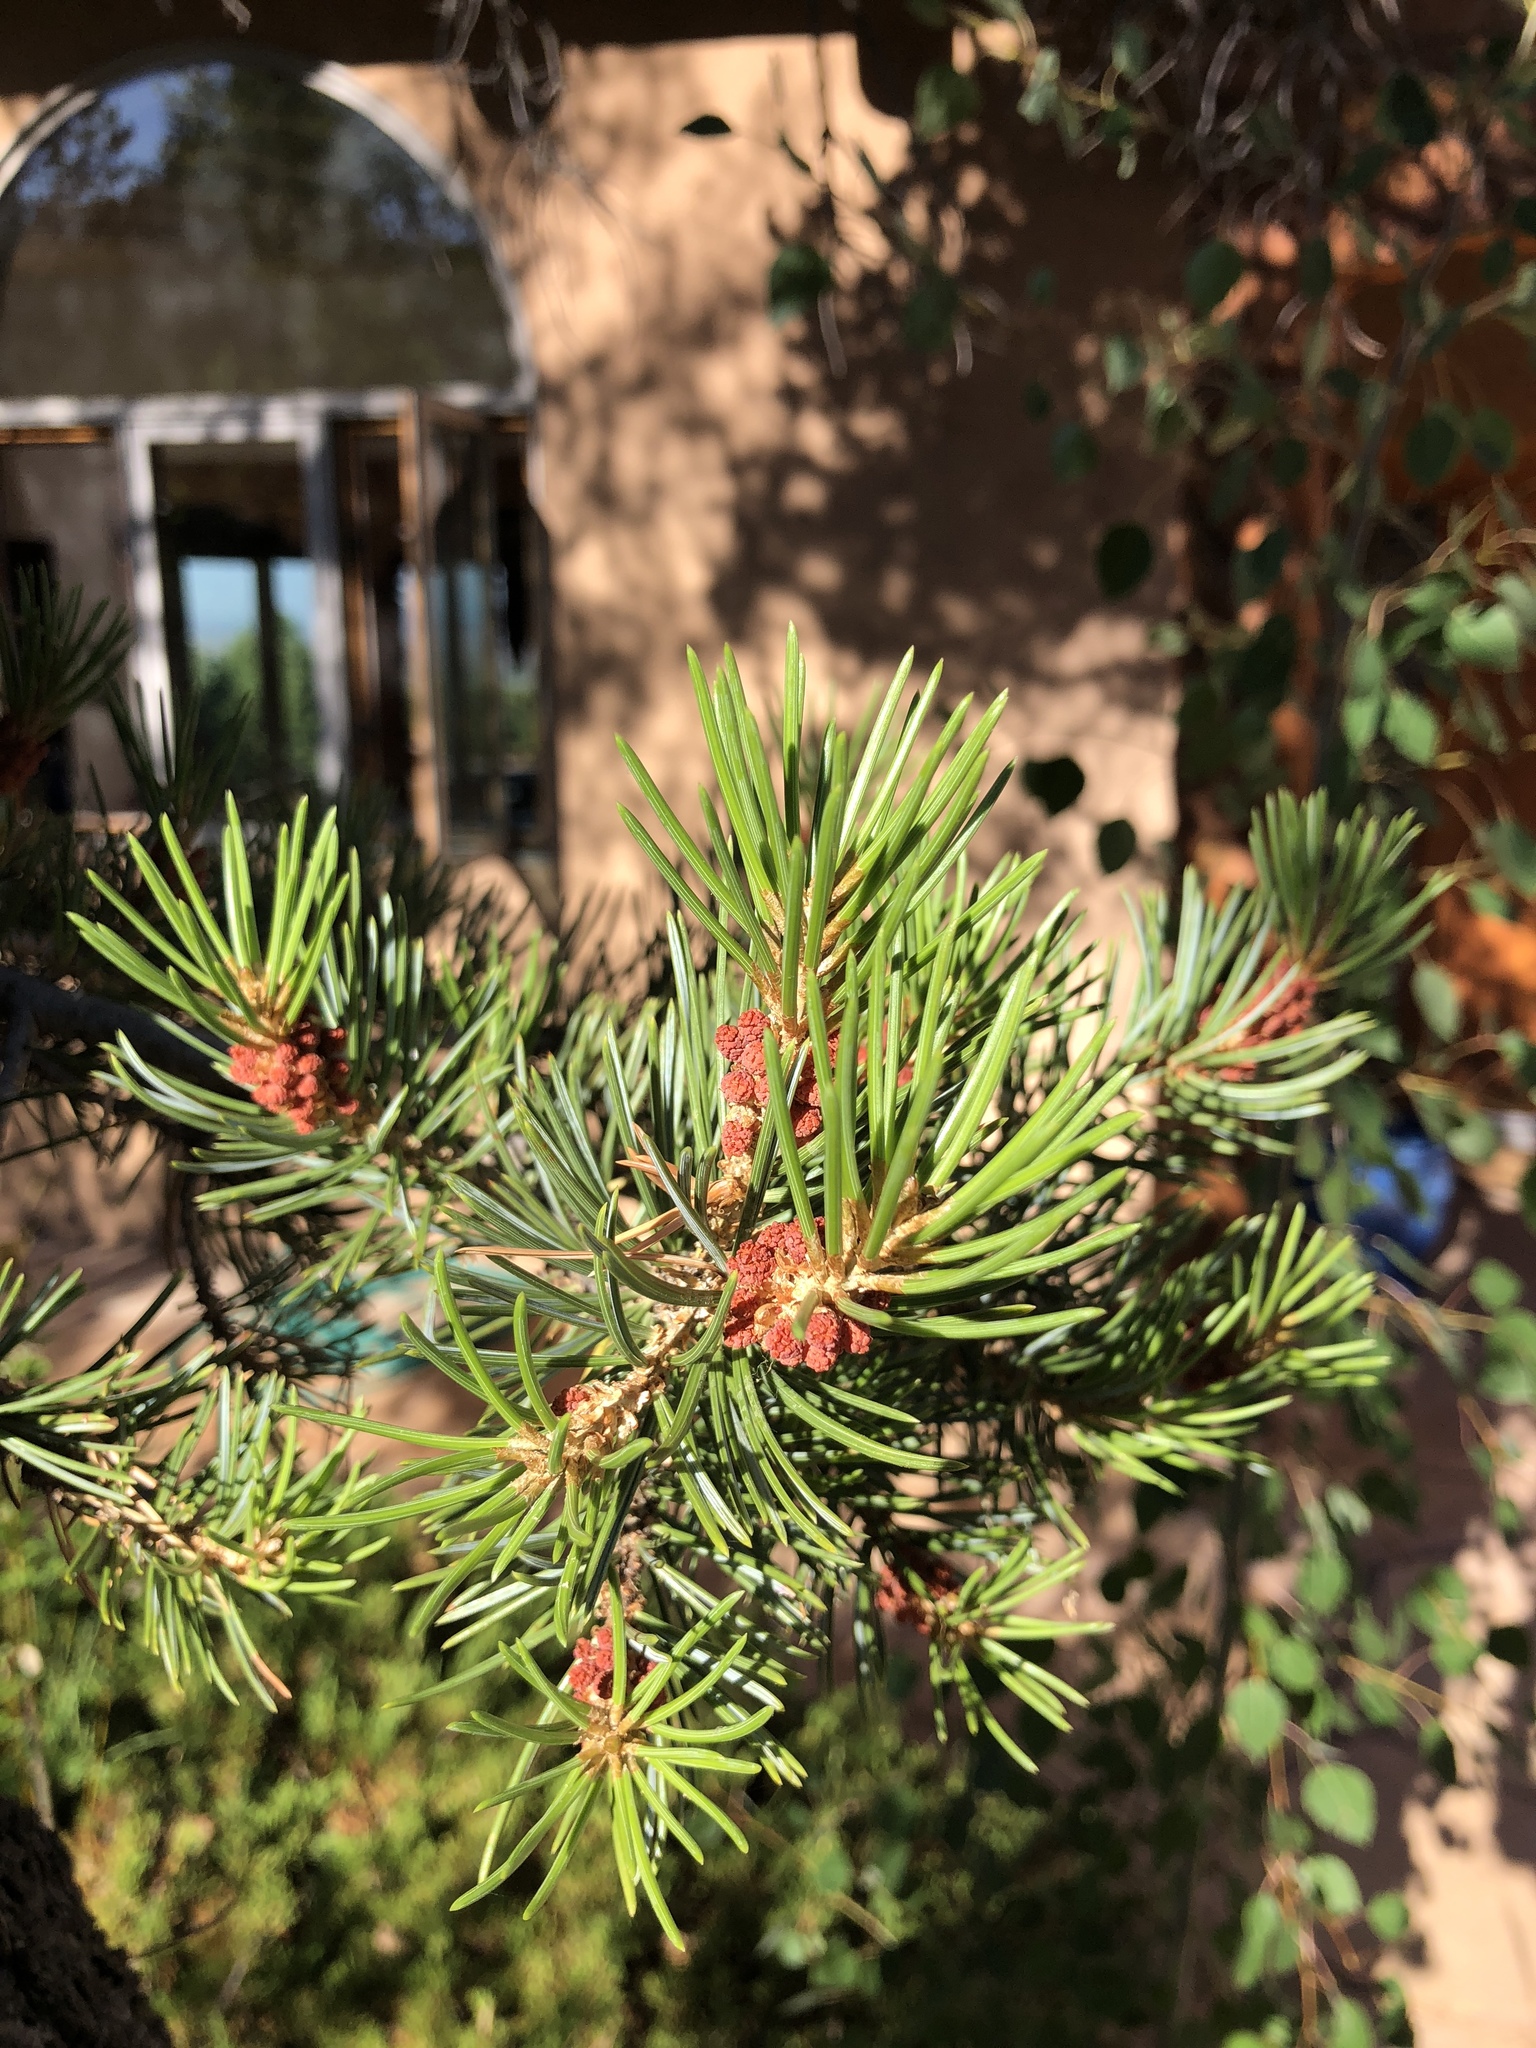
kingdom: Plantae
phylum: Tracheophyta
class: Pinopsida
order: Pinales
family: Pinaceae
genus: Pinus
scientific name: Pinus edulis
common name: Colorado pinyon
